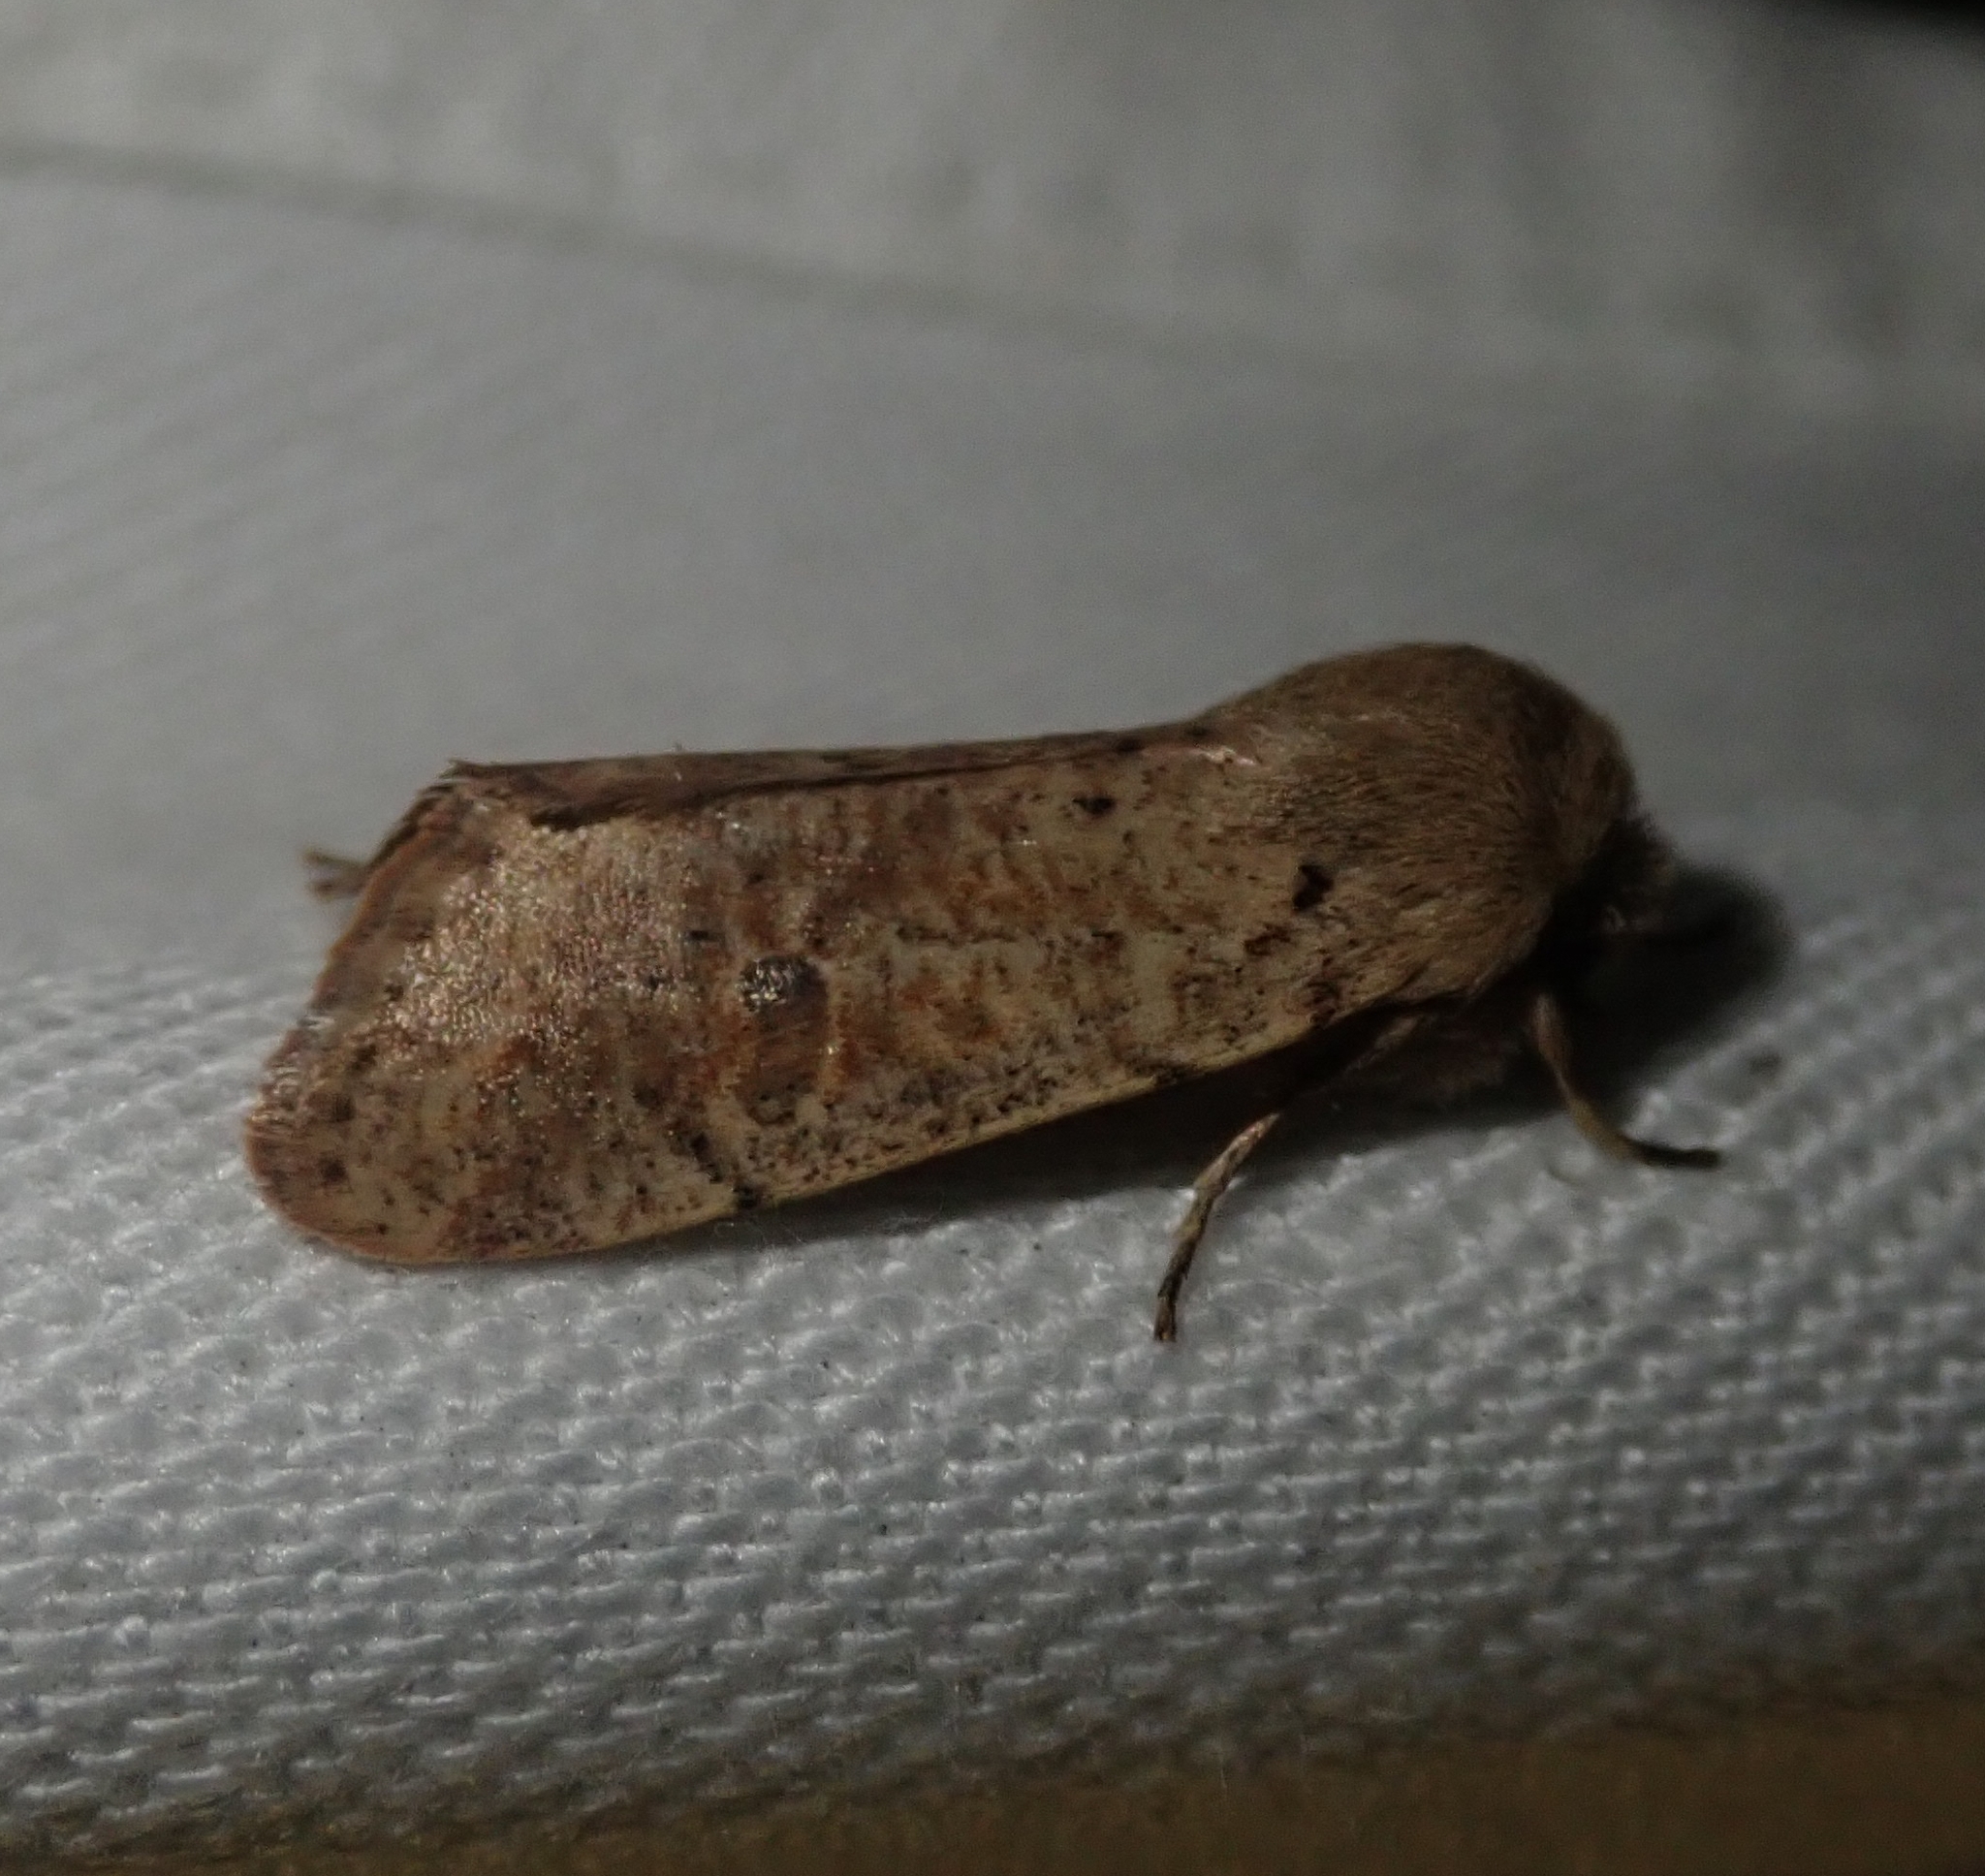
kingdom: Animalia
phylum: Arthropoda
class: Insecta
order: Lepidoptera
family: Noctuidae
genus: Orthosia
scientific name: Orthosia cruda
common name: Small quaker
